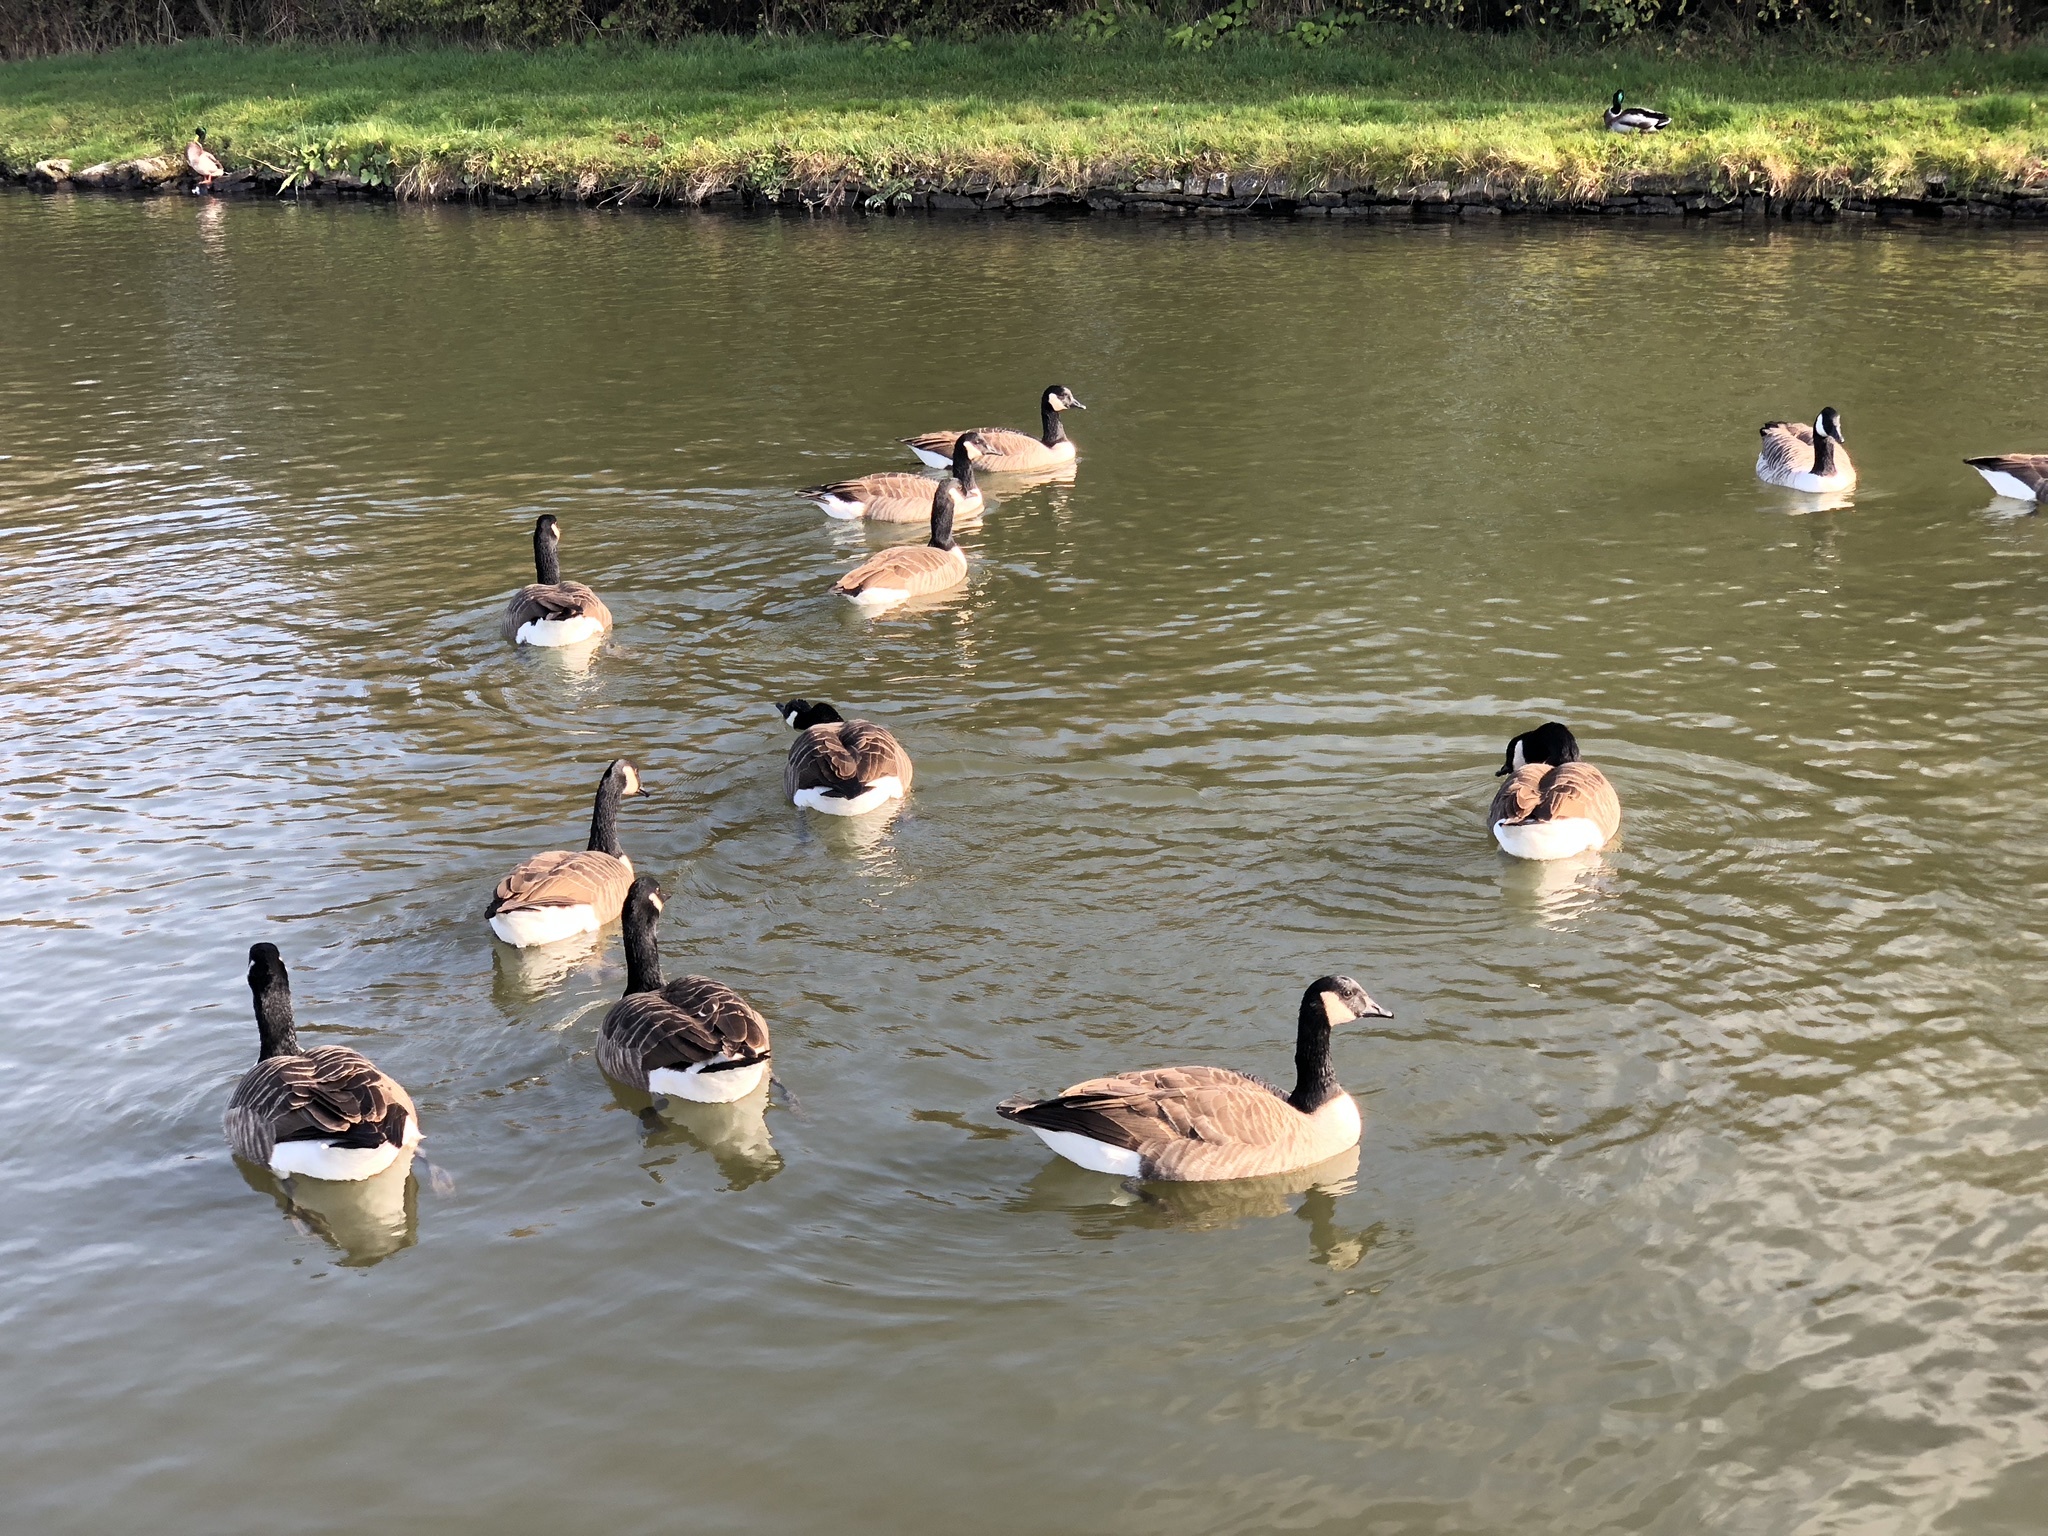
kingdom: Animalia
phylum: Chordata
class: Aves
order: Anseriformes
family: Anatidae
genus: Branta
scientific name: Branta canadensis
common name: Canada goose
